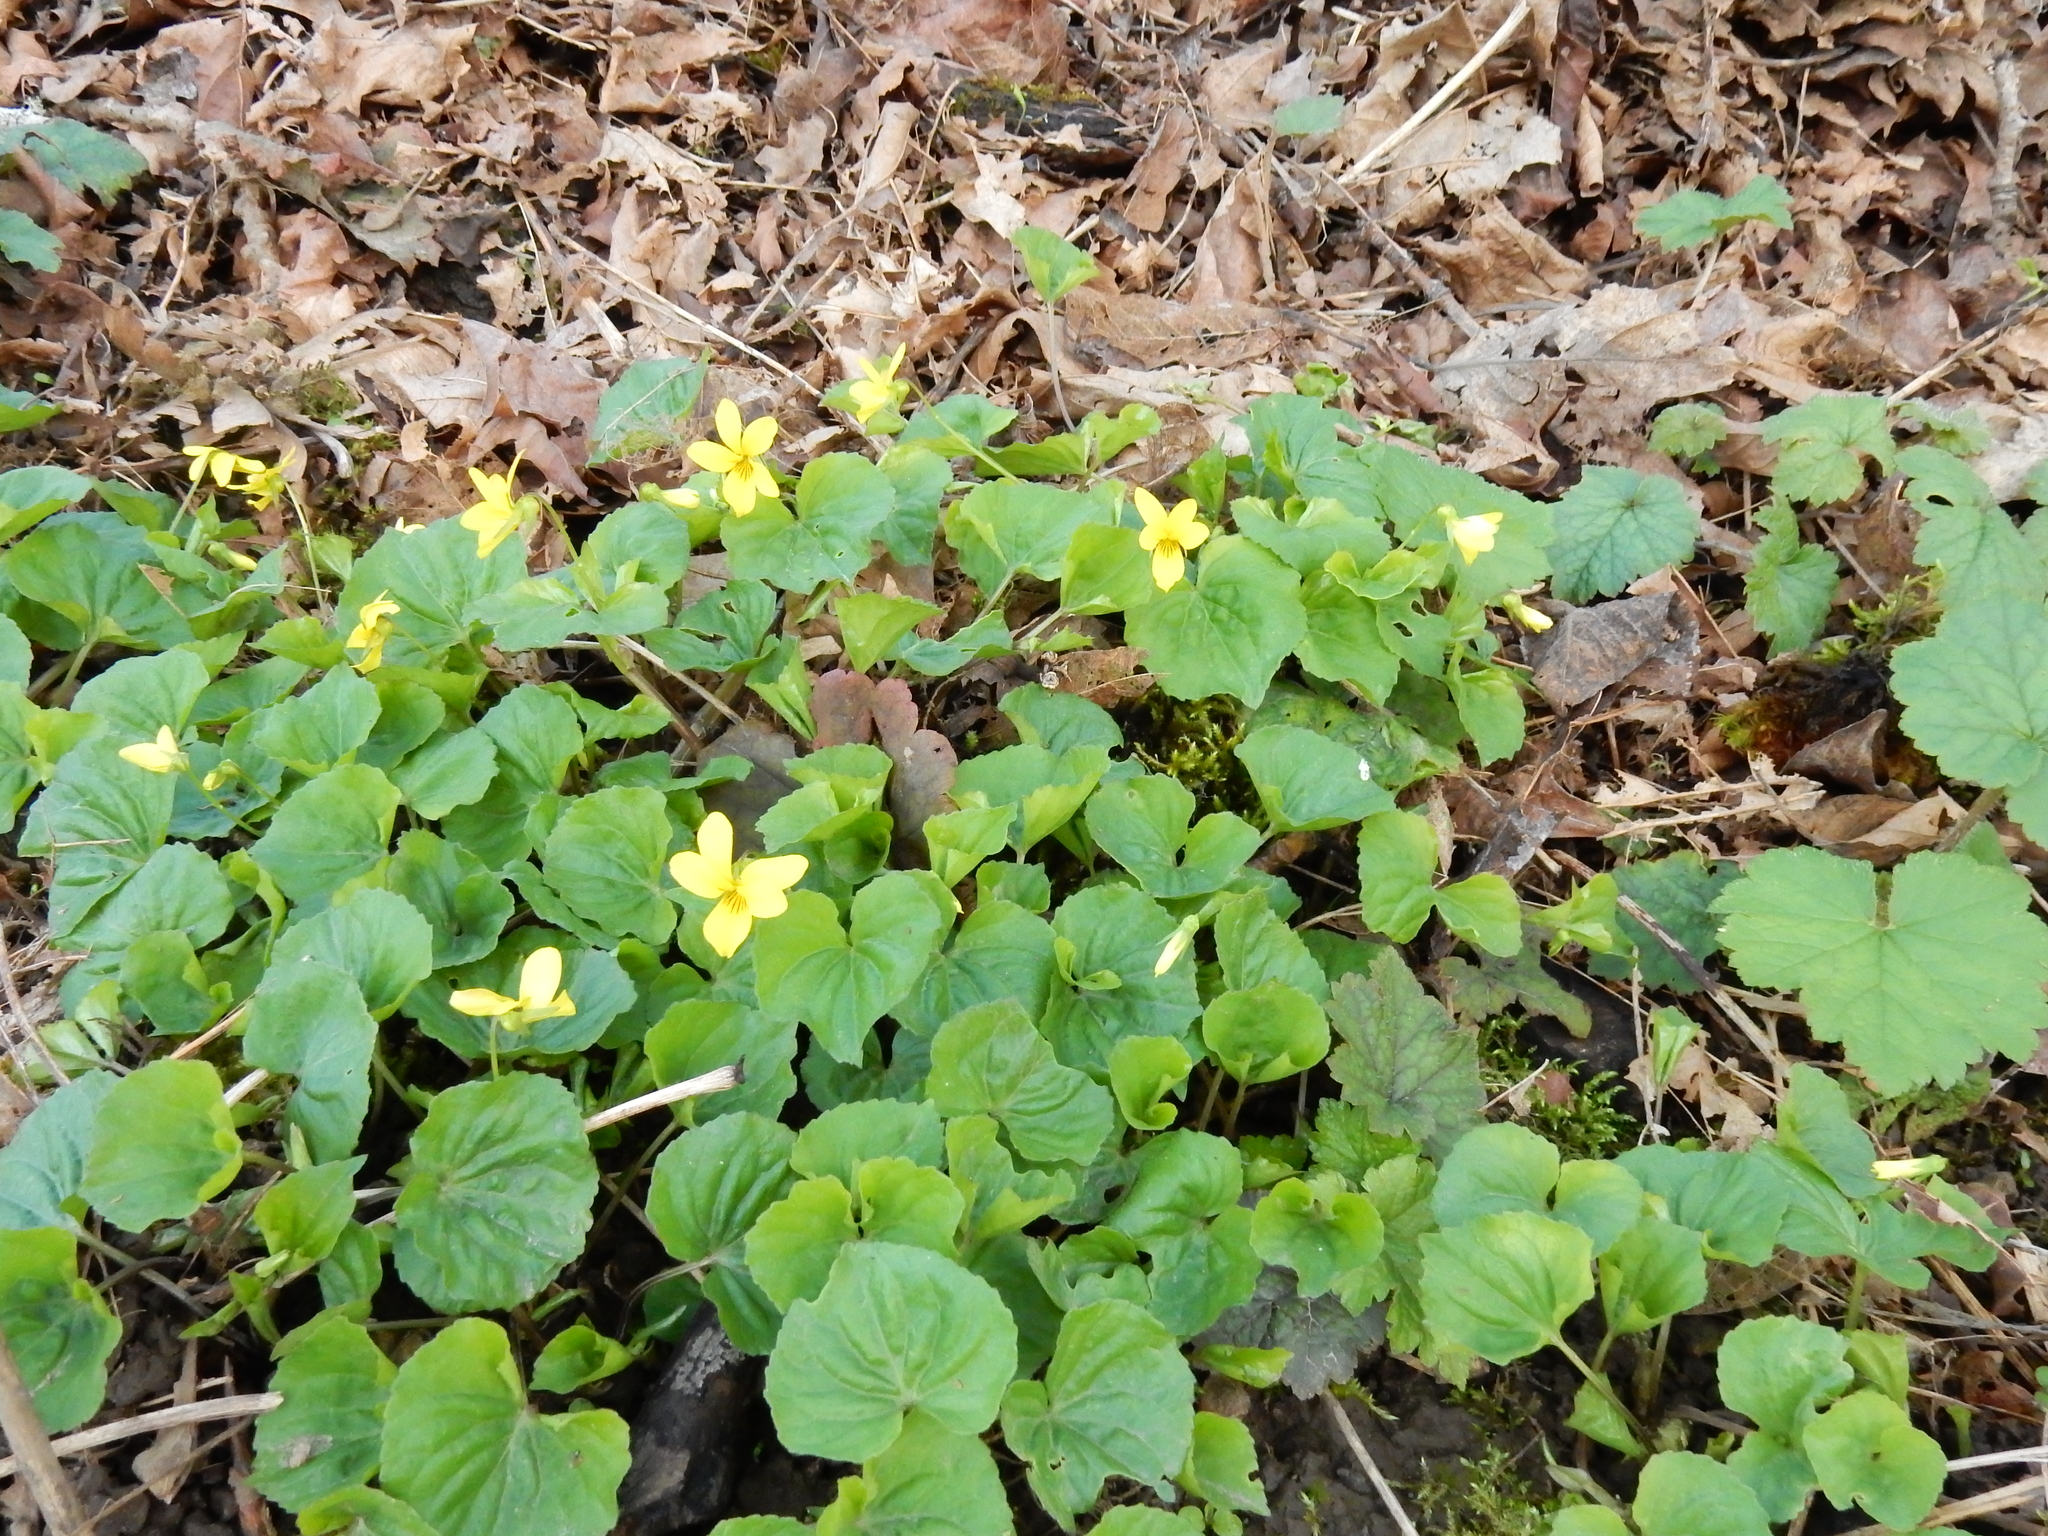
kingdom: Plantae
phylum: Tracheophyta
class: Magnoliopsida
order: Malpighiales
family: Violaceae
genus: Viola
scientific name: Viola glabella
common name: Stream violet
